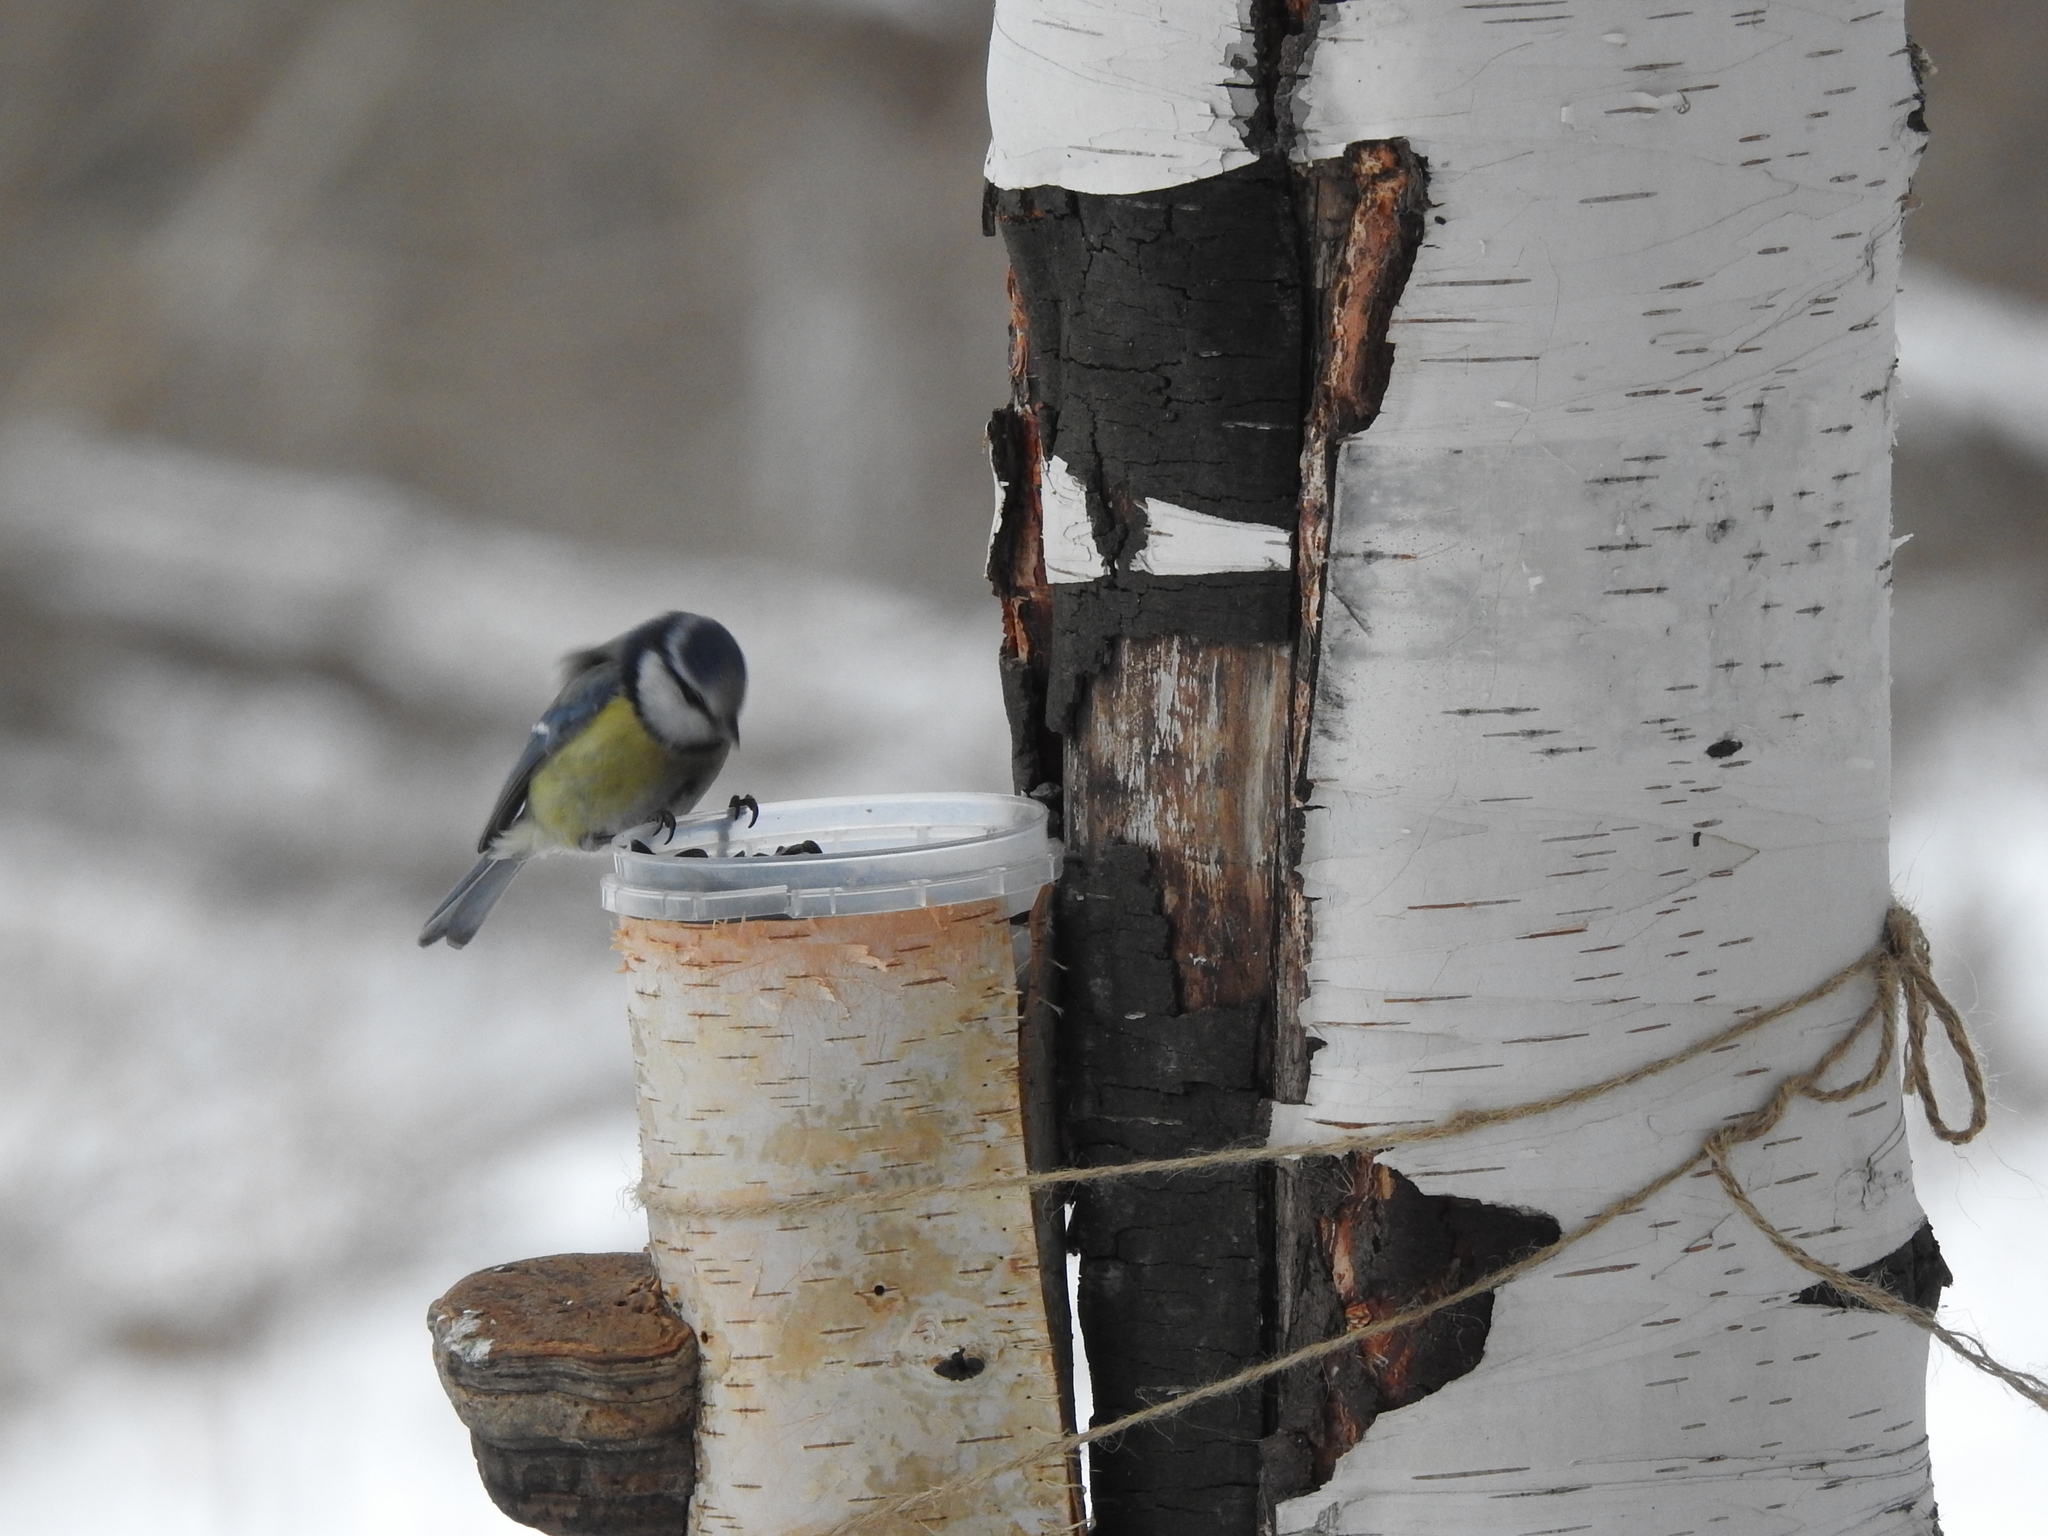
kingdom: Animalia
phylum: Chordata
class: Aves
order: Passeriformes
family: Paridae
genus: Cyanistes
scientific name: Cyanistes caeruleus
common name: Eurasian blue tit
